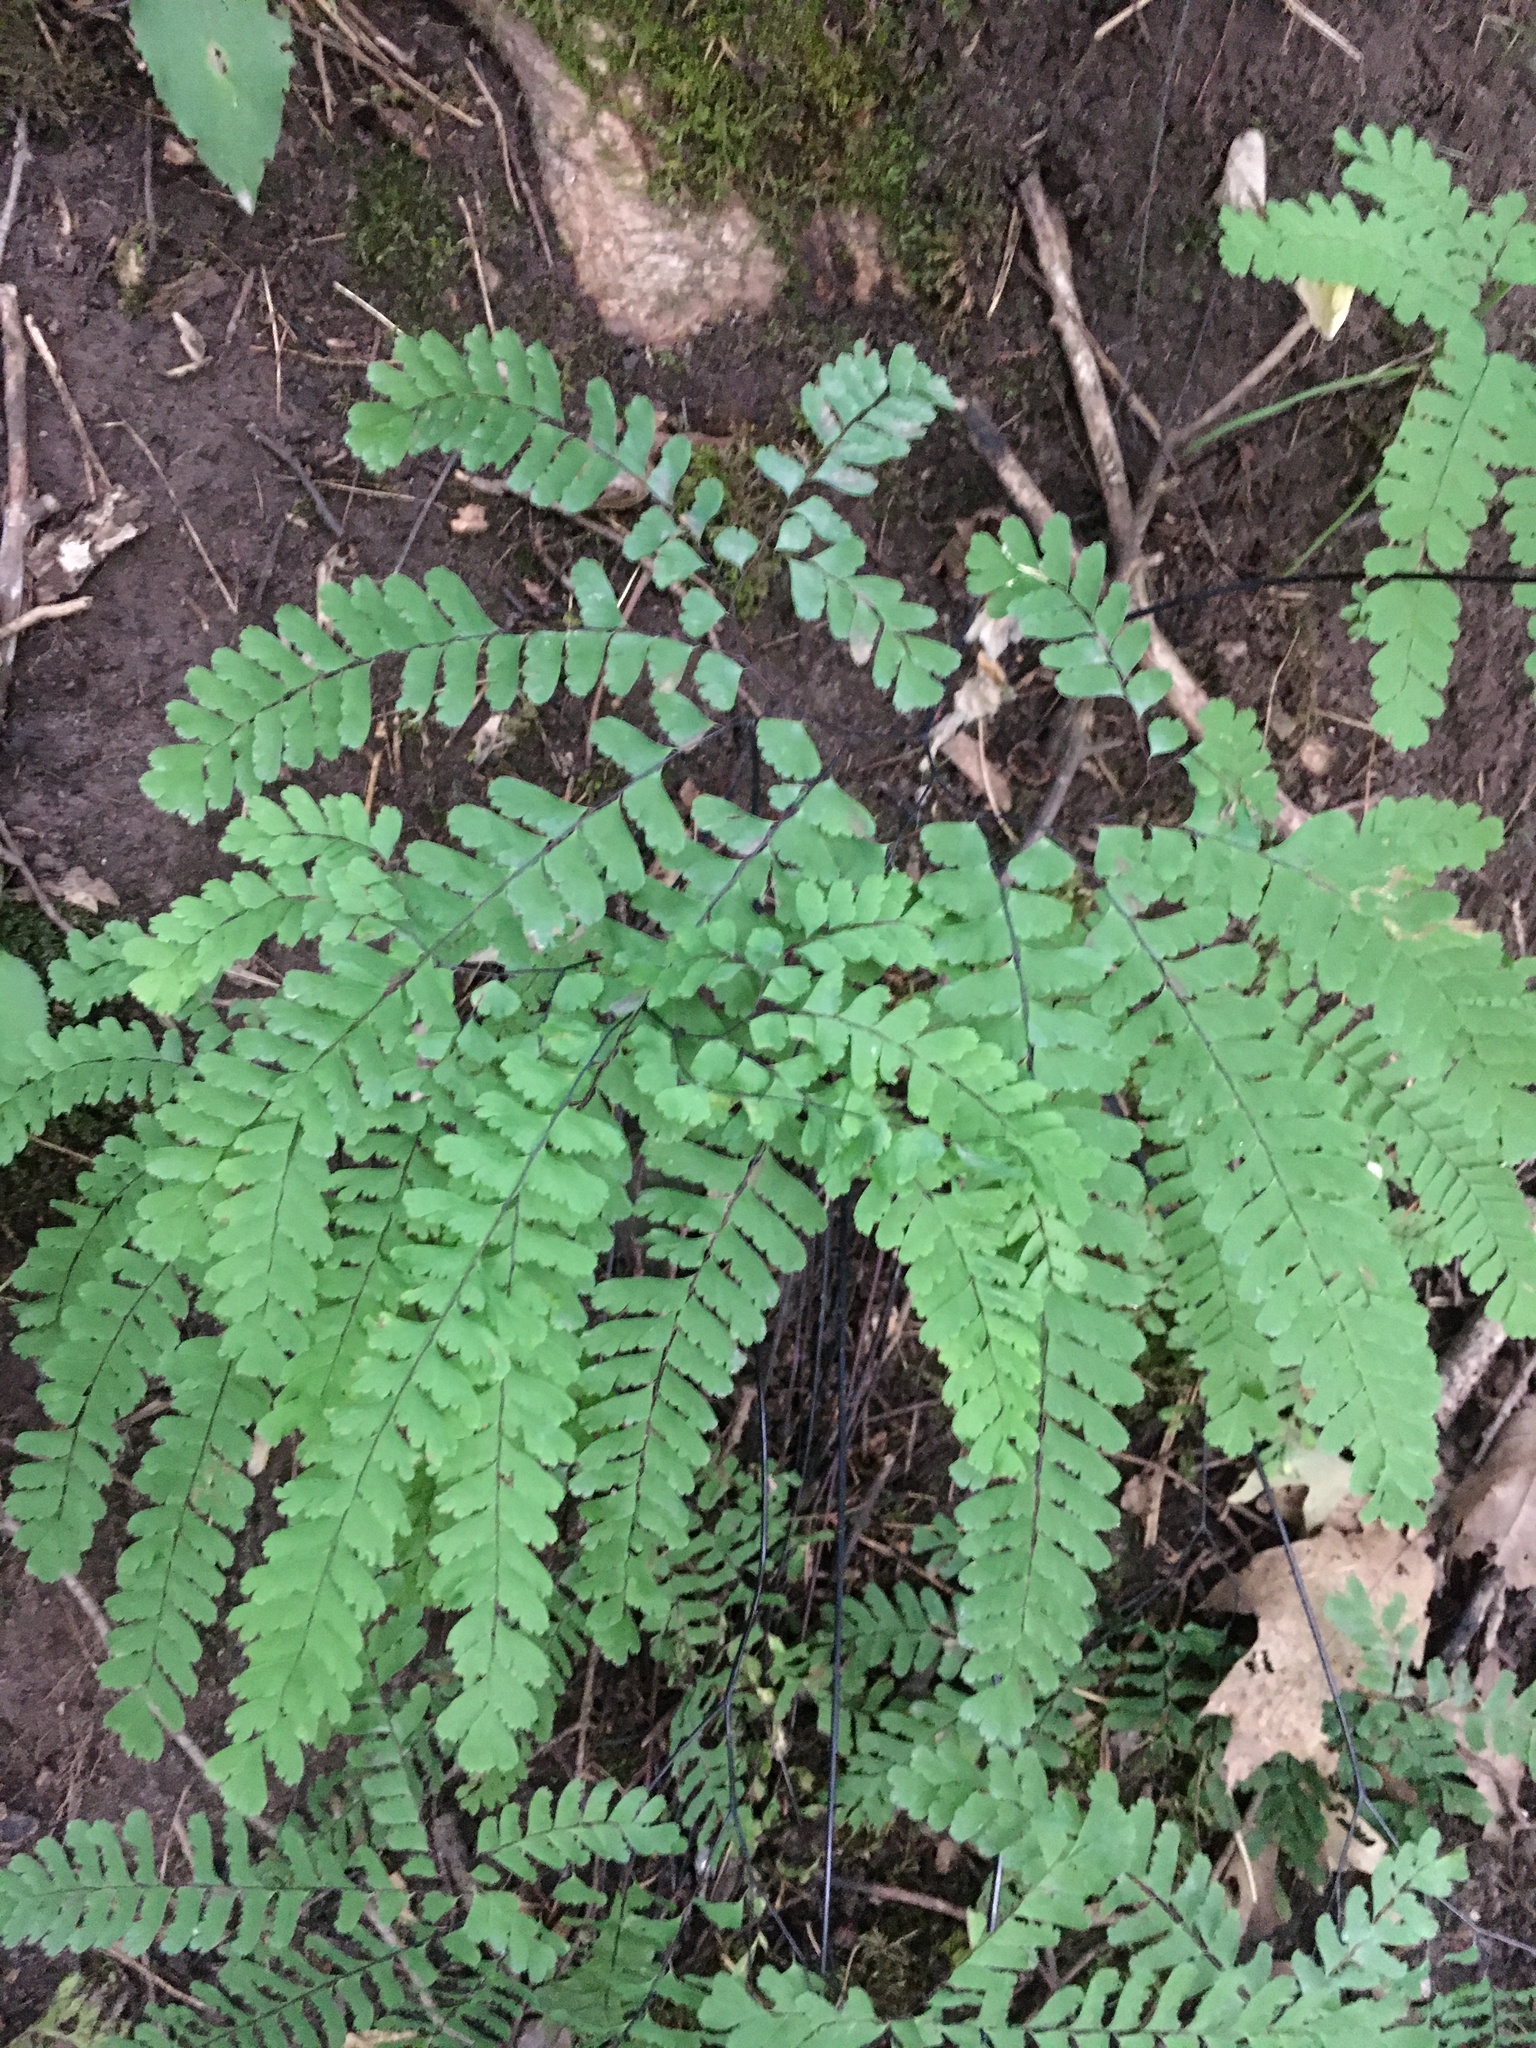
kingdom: Plantae
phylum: Tracheophyta
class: Polypodiopsida
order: Polypodiales
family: Pteridaceae
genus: Adiantum
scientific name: Adiantum pedatum
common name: Five-finger fern
